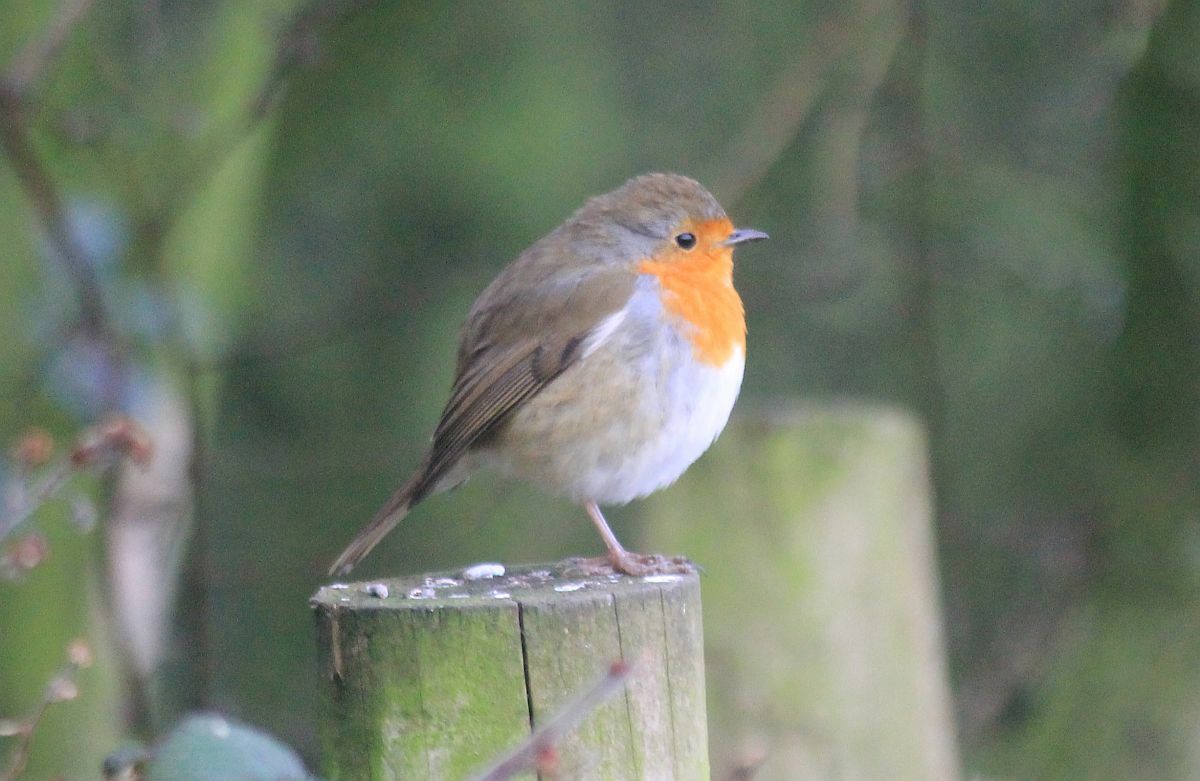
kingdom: Animalia
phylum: Chordata
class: Aves
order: Passeriformes
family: Muscicapidae
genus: Erithacus
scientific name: Erithacus rubecula
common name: European robin
